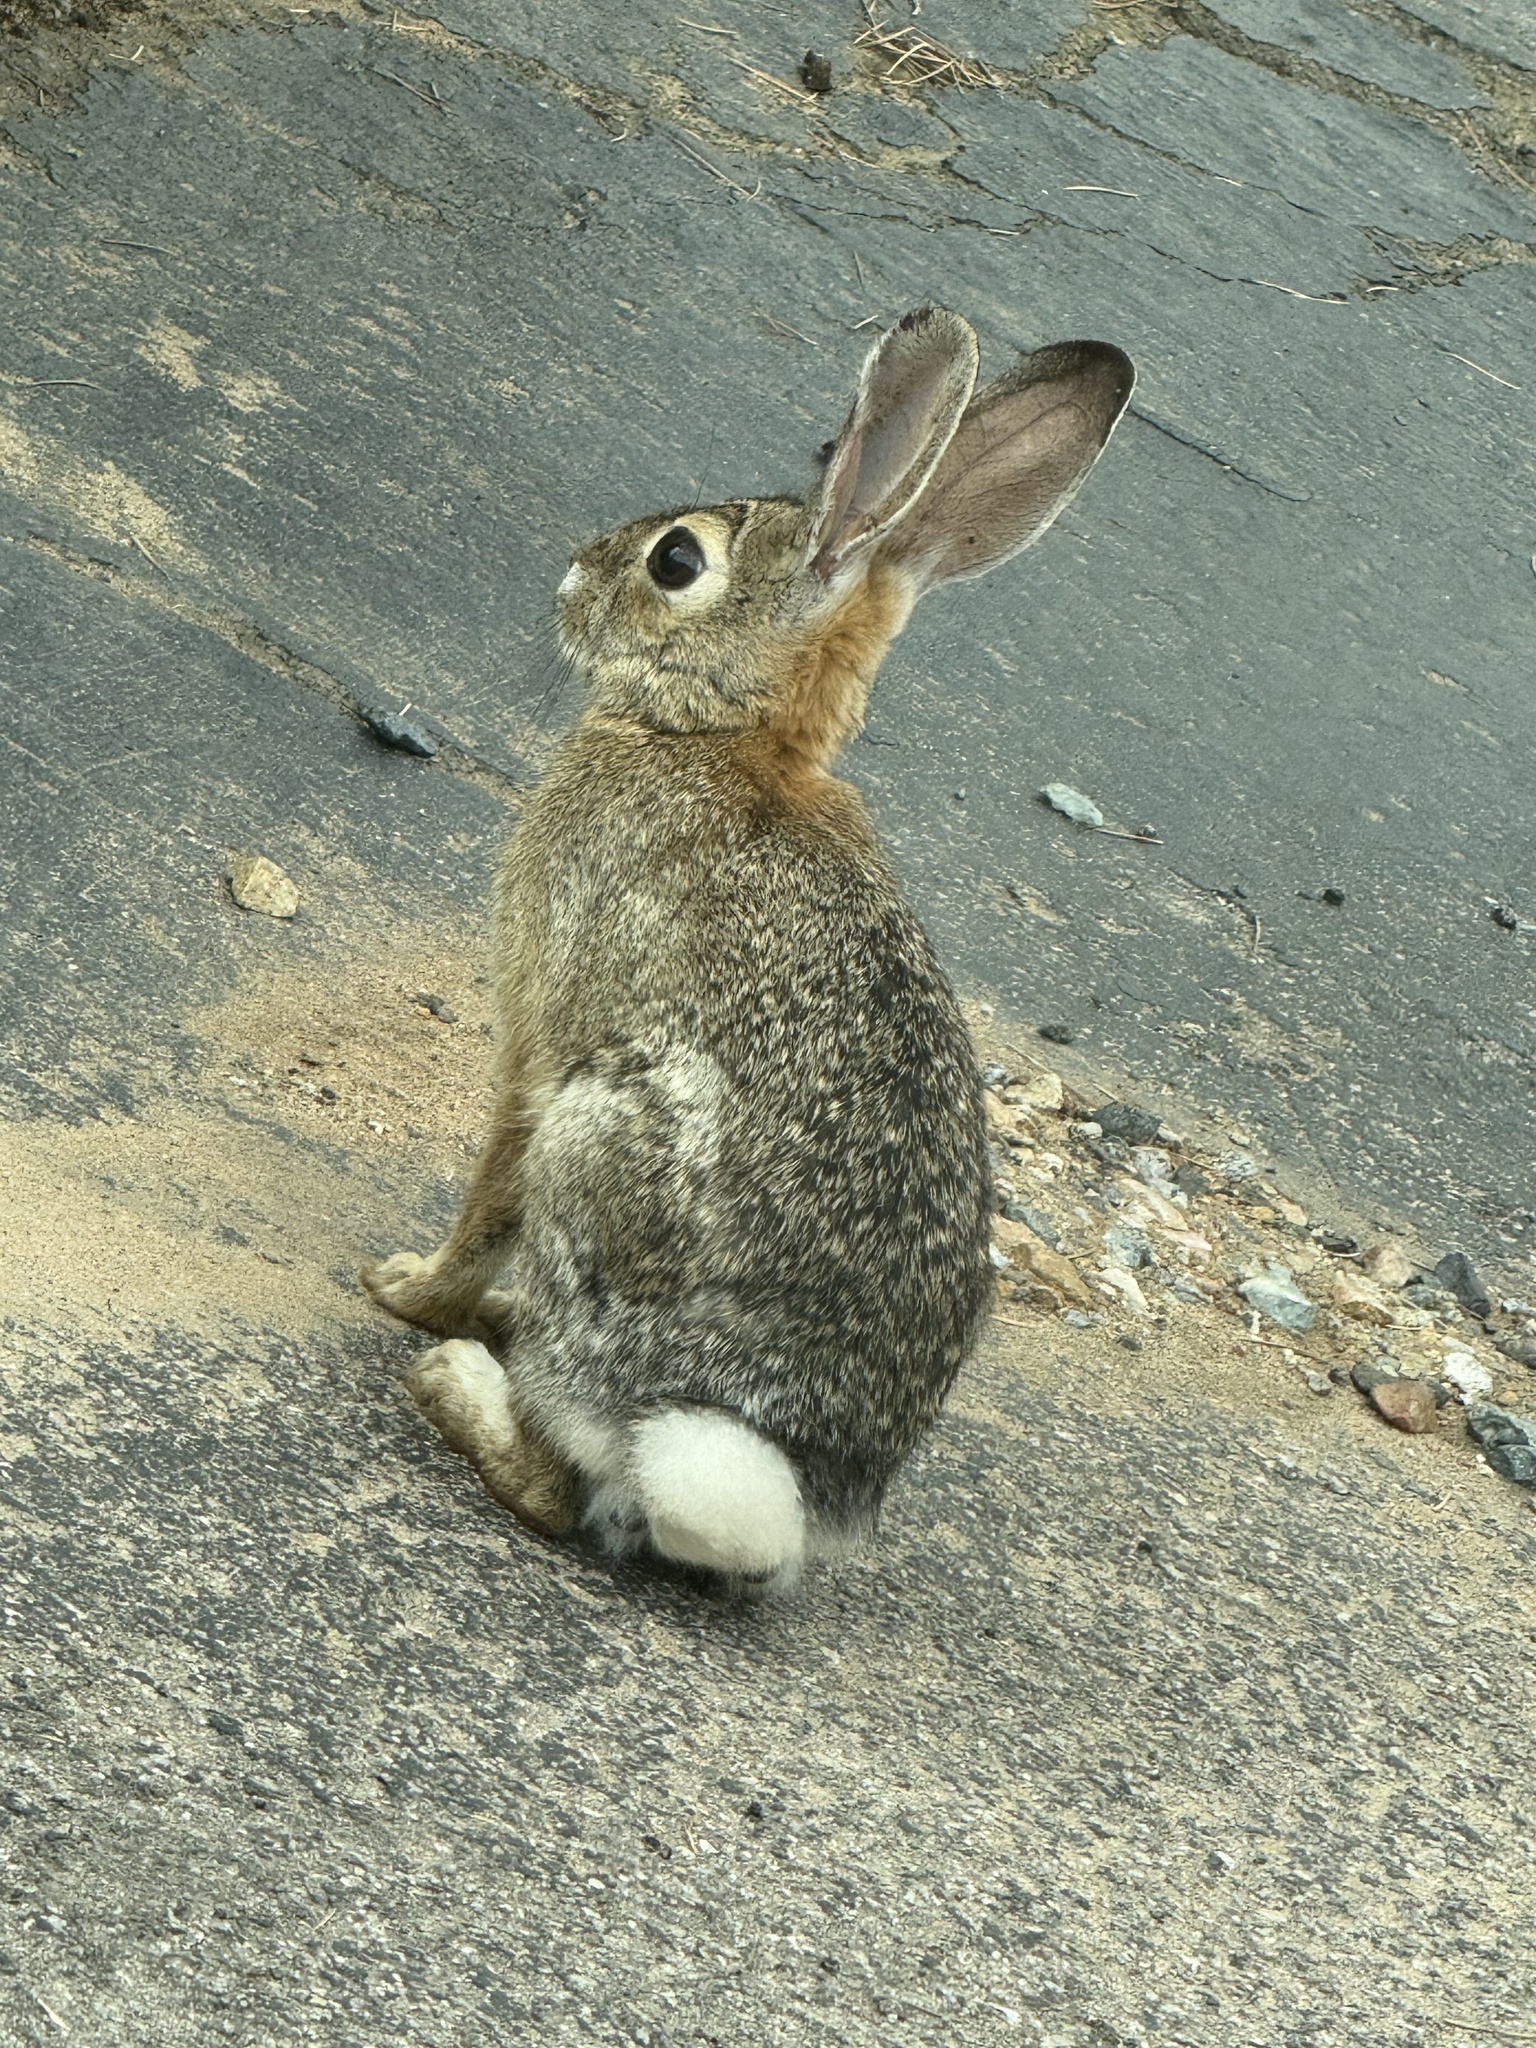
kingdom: Animalia
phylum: Chordata
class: Mammalia
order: Lagomorpha
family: Leporidae
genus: Sylvilagus
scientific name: Sylvilagus audubonii
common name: Desert cottontail
